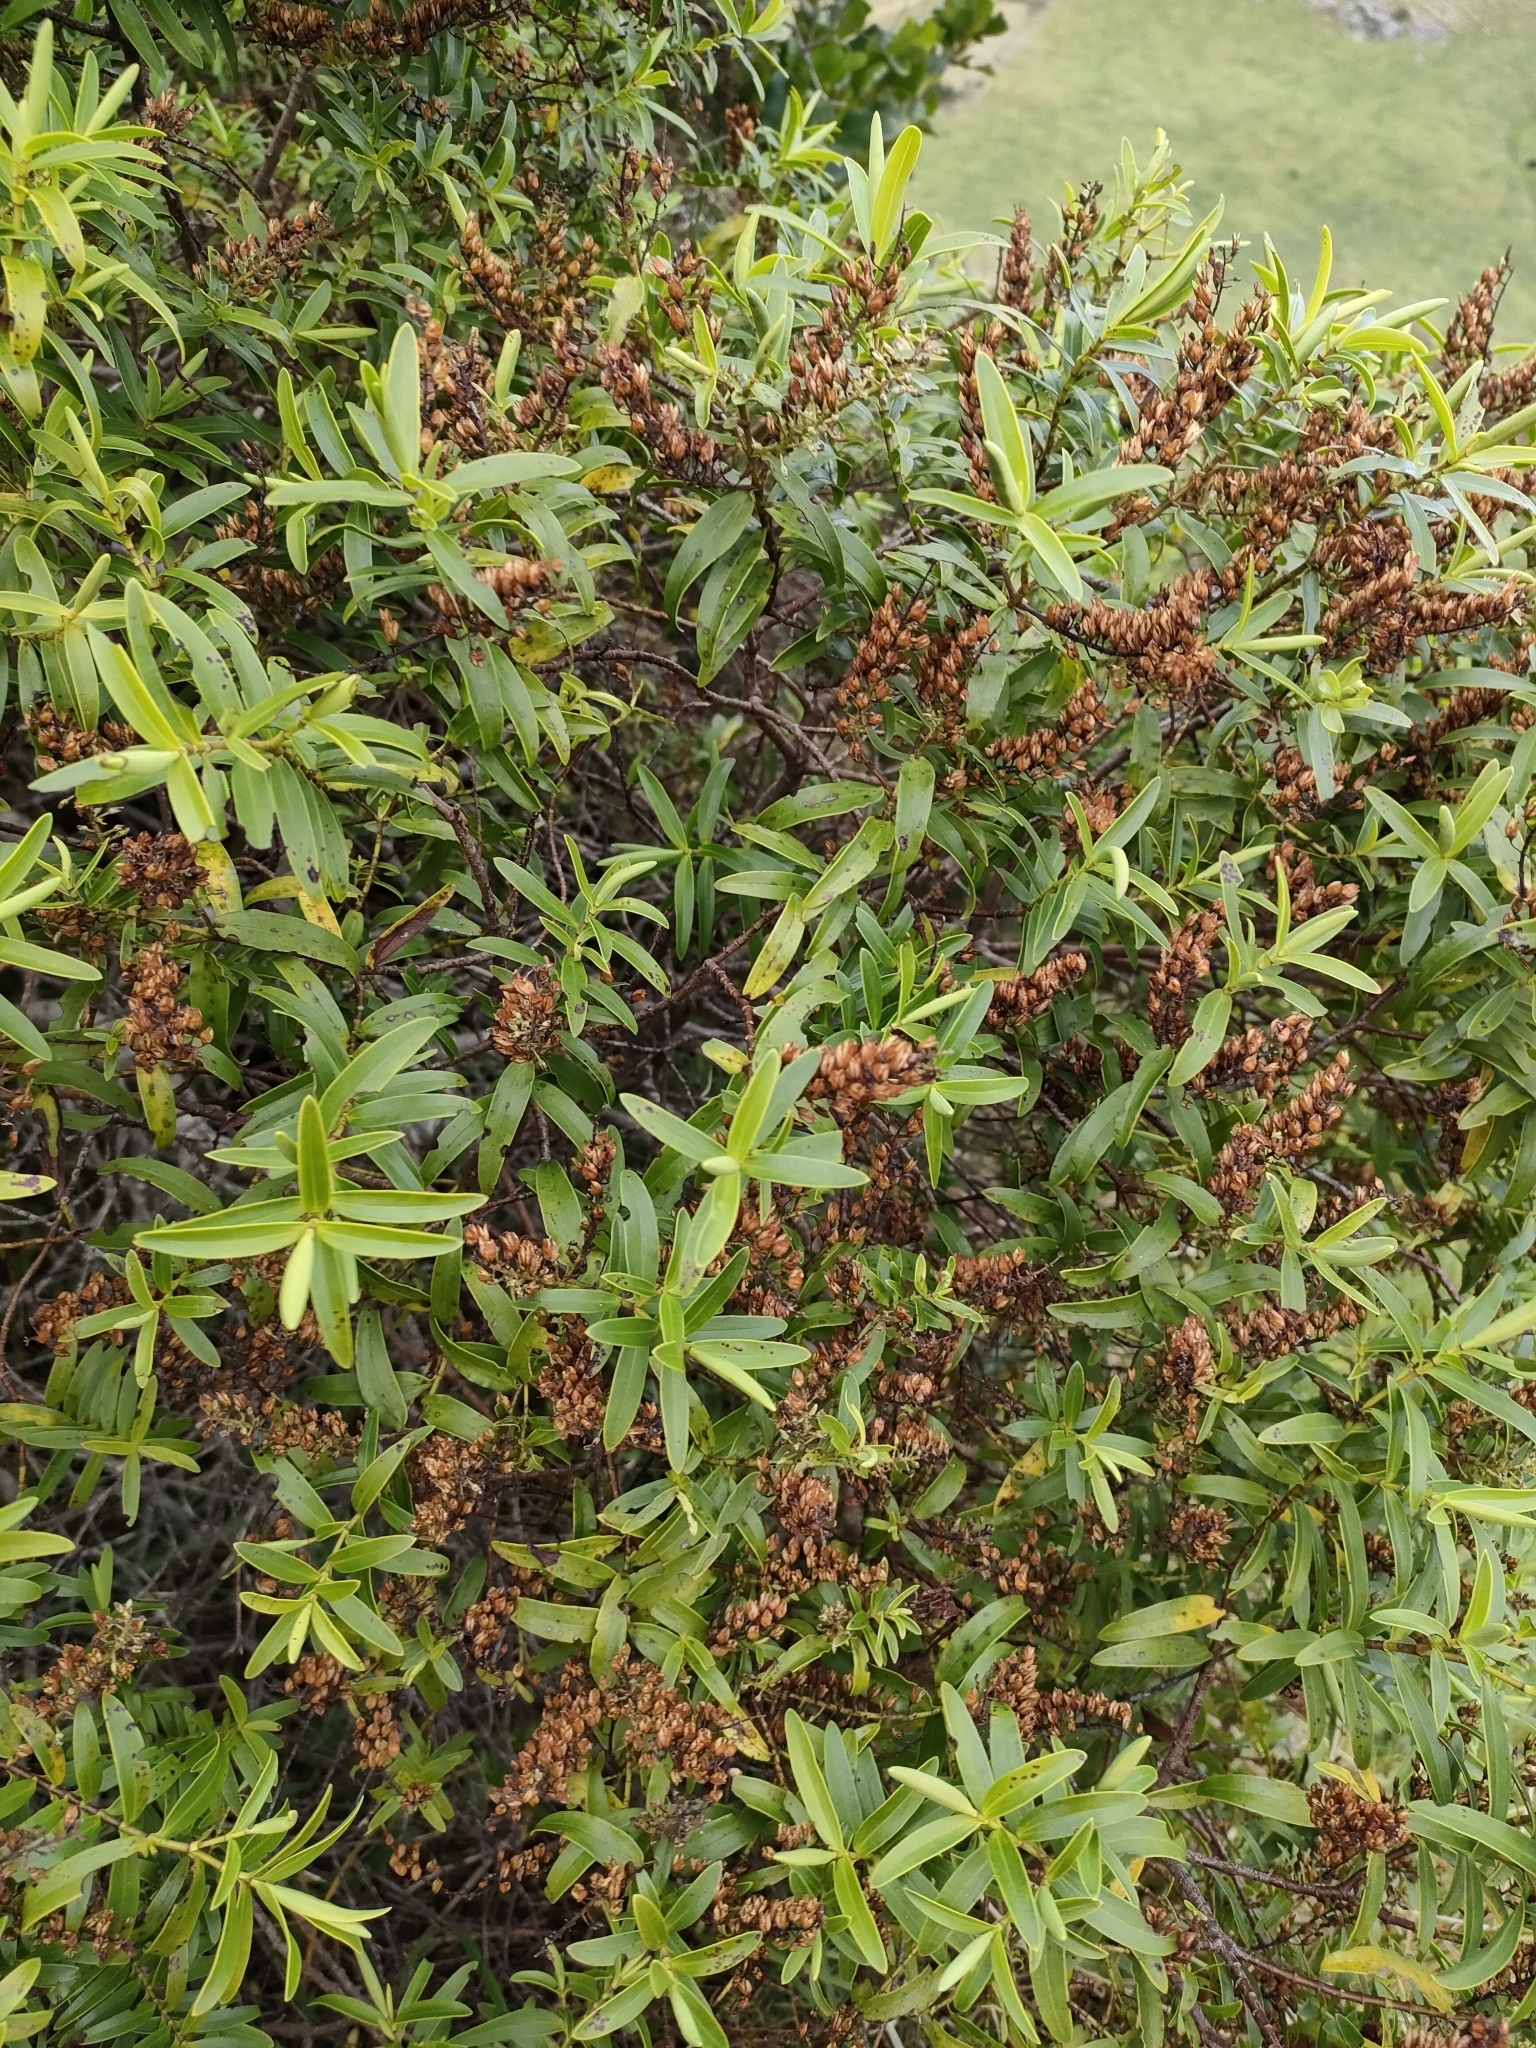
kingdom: Plantae
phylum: Tracheophyta
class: Magnoliopsida
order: Lamiales
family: Plantaginaceae
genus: Veronica
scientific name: Veronica strictissima
